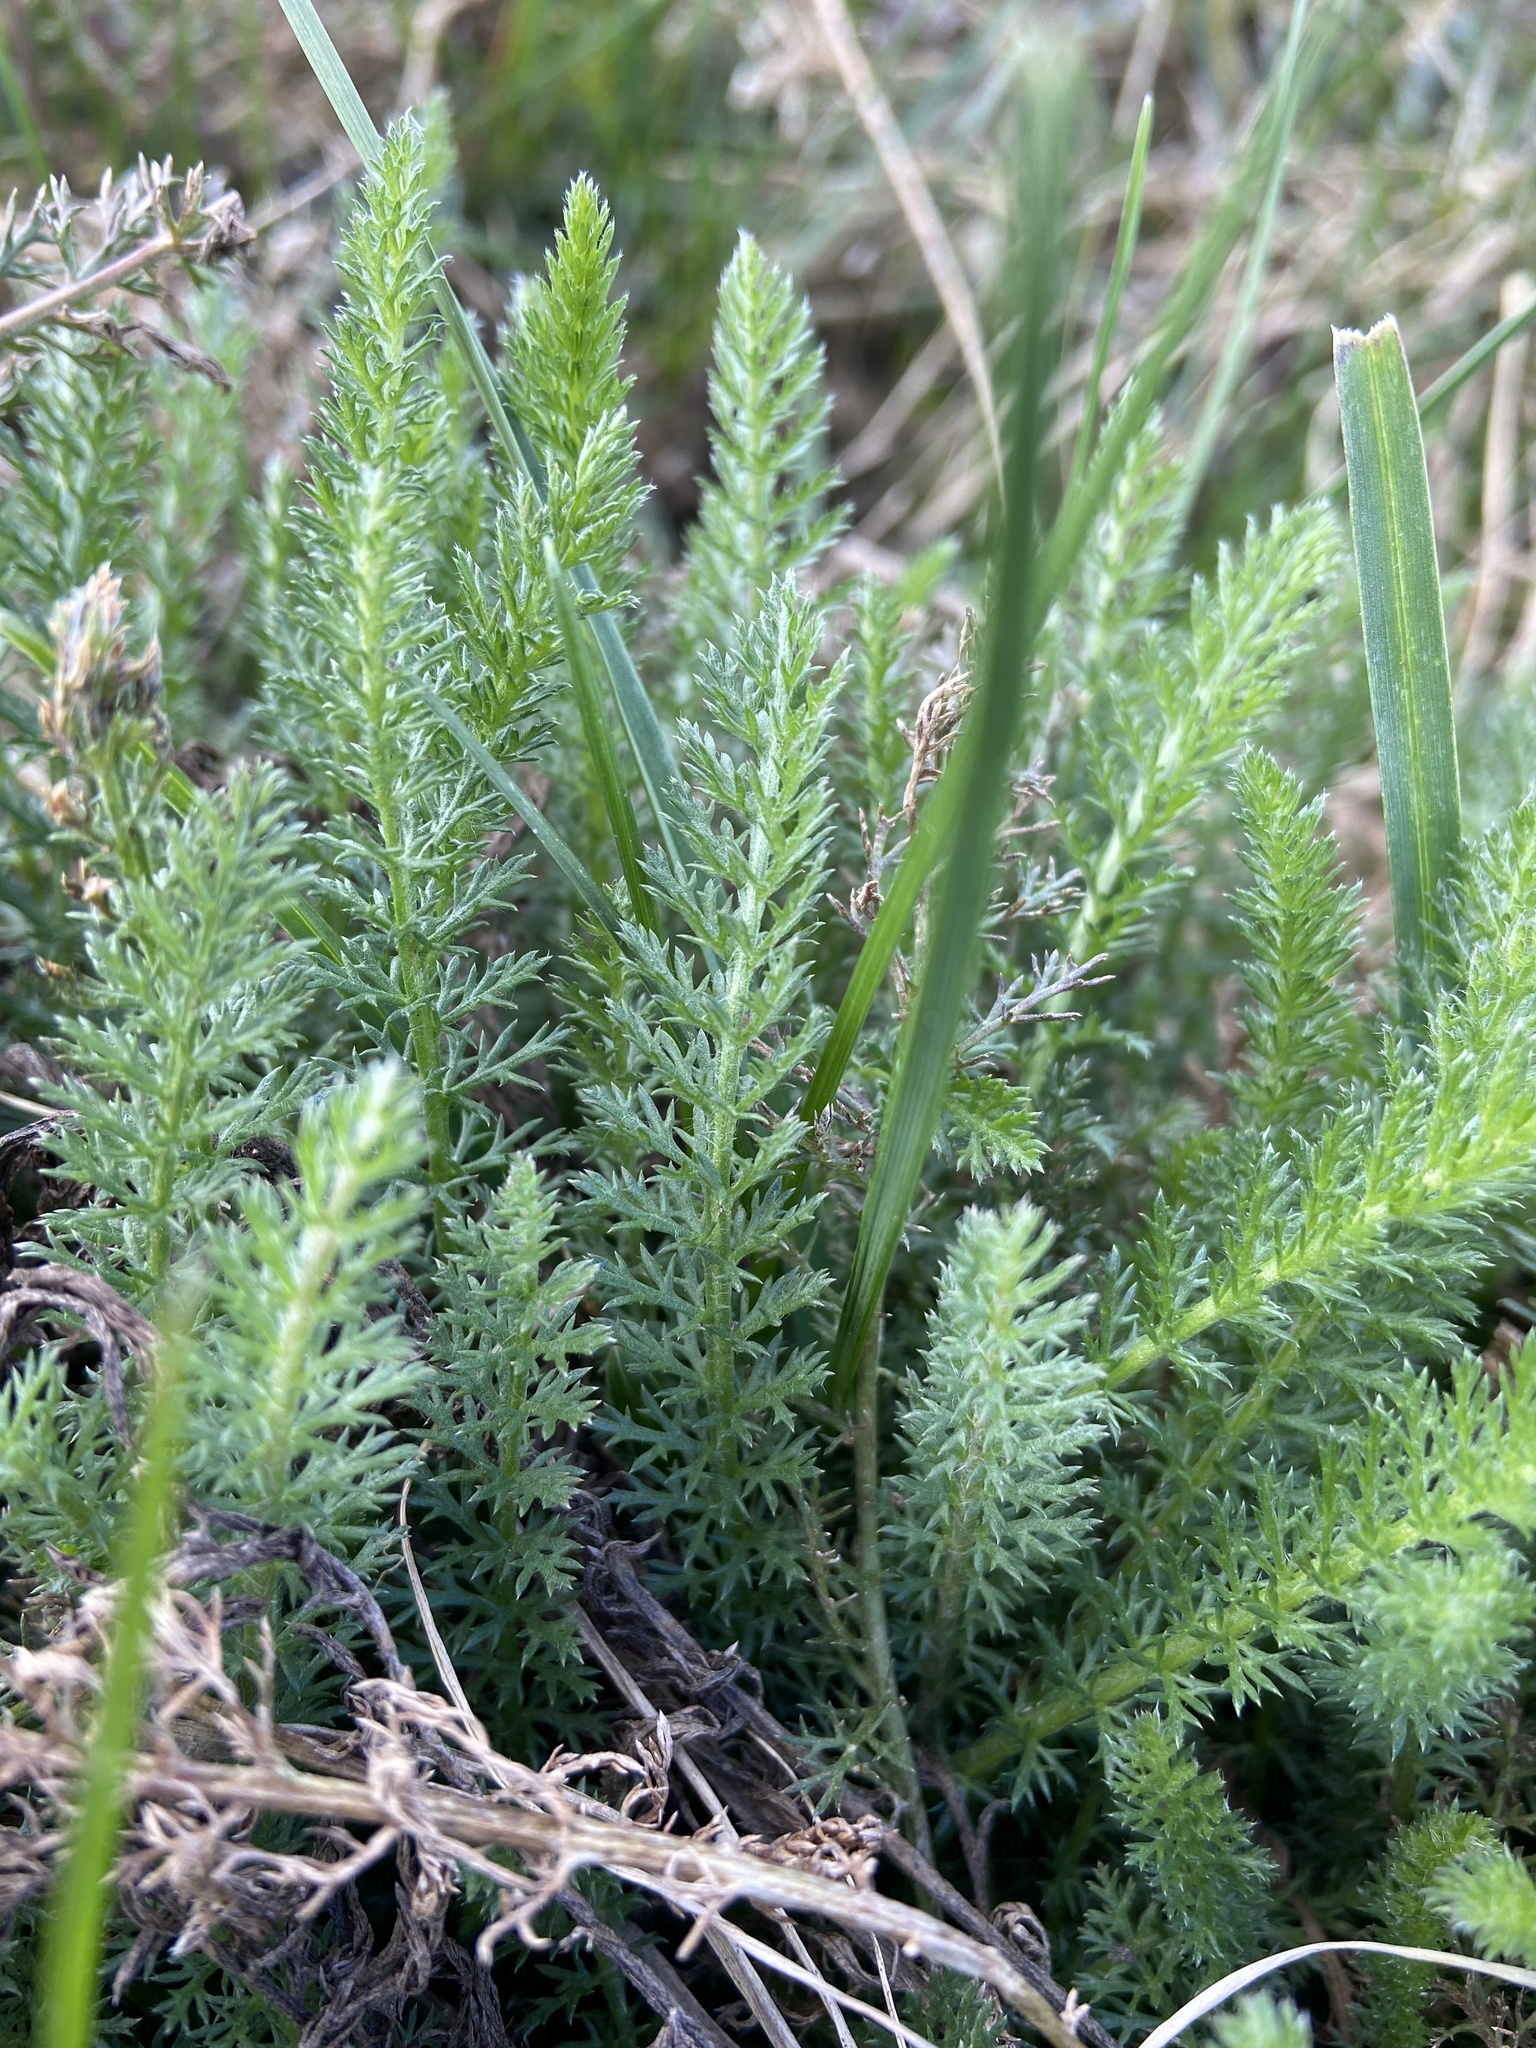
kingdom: Plantae
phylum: Tracheophyta
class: Magnoliopsida
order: Asterales
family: Asteraceae
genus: Achillea
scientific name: Achillea millefolium
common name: Yarrow
